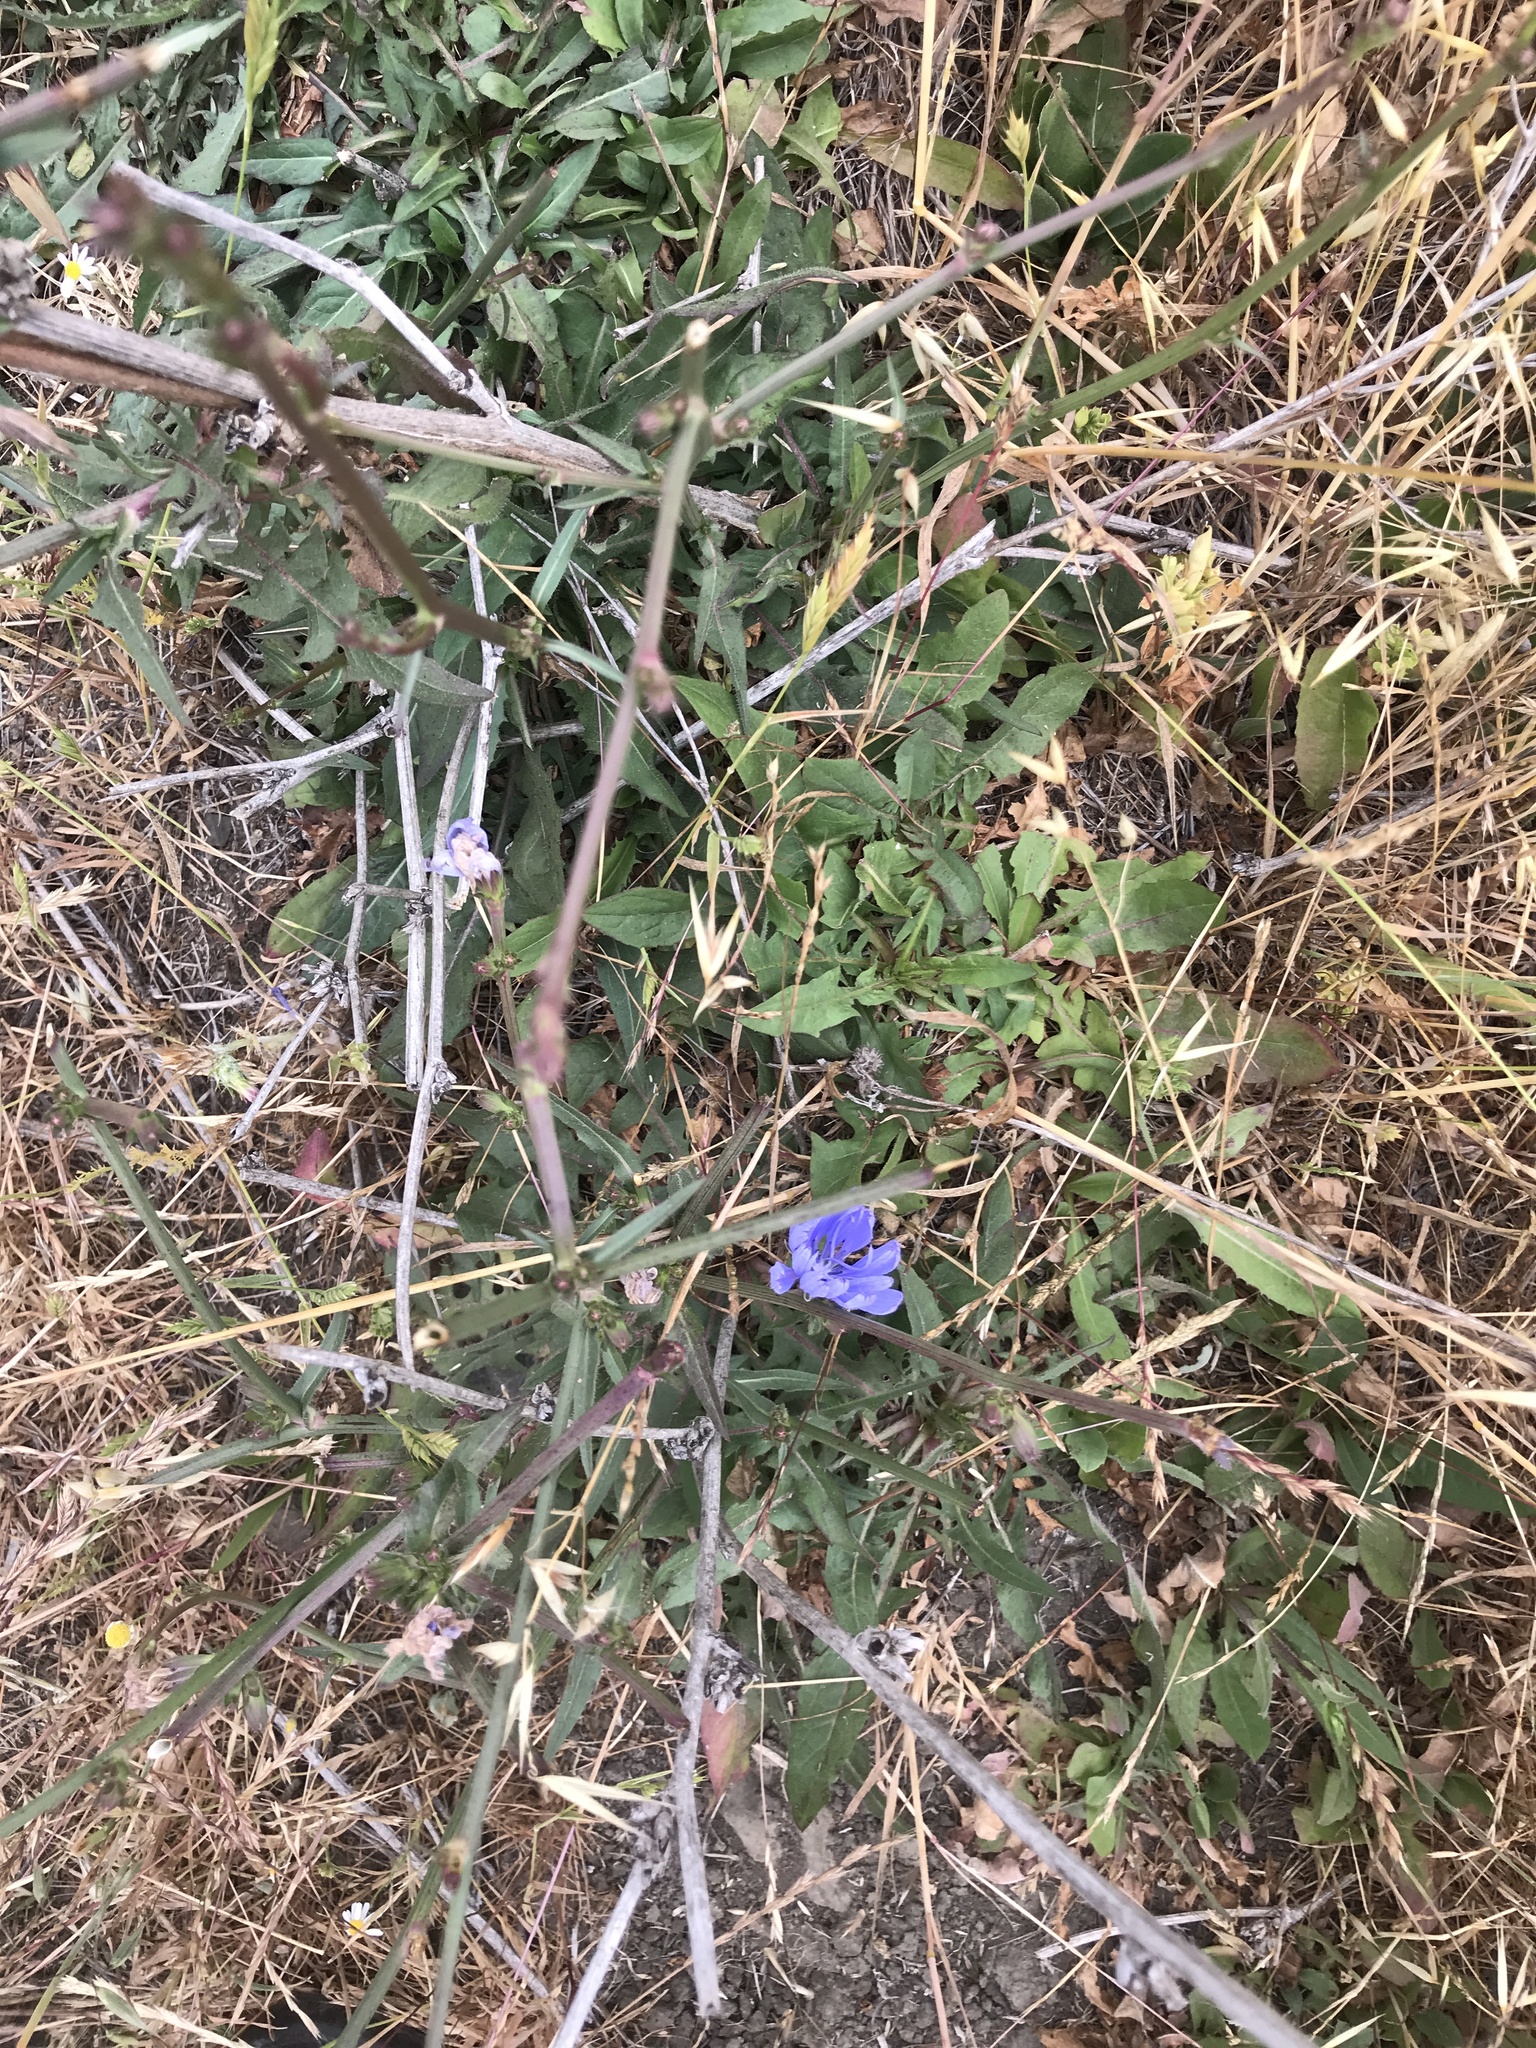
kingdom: Plantae
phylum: Tracheophyta
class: Magnoliopsida
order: Asterales
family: Asteraceae
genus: Cichorium
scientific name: Cichorium intybus
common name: Chicory
